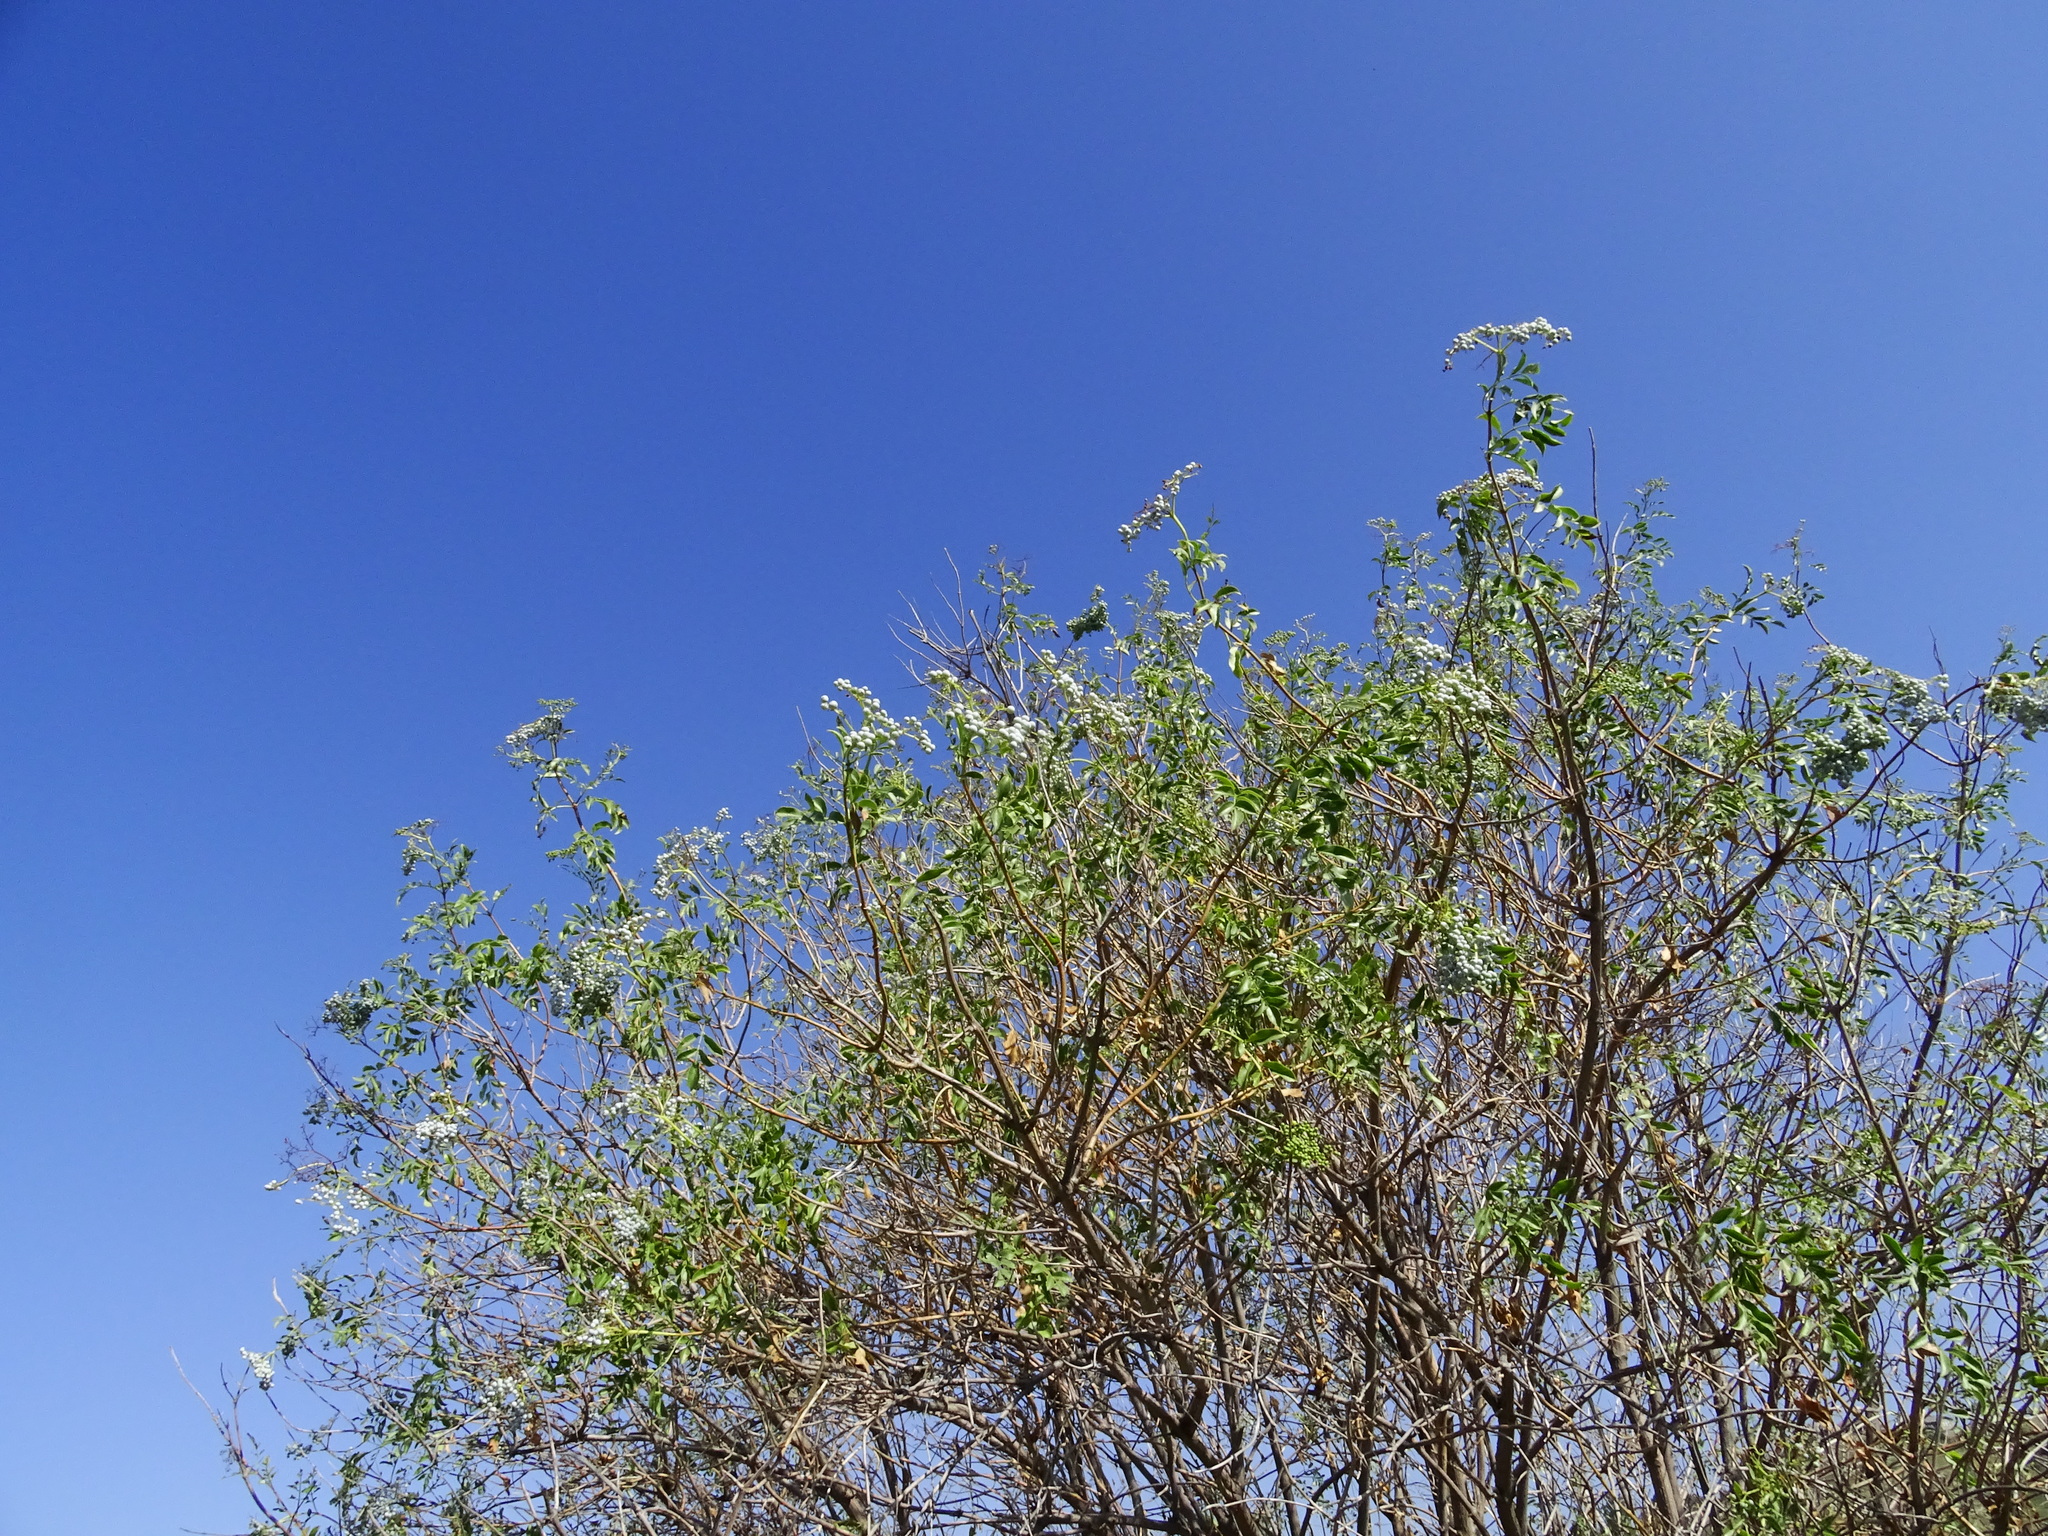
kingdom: Plantae
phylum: Tracheophyta
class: Magnoliopsida
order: Dipsacales
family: Viburnaceae
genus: Sambucus
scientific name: Sambucus cerulea
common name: Blue elder
